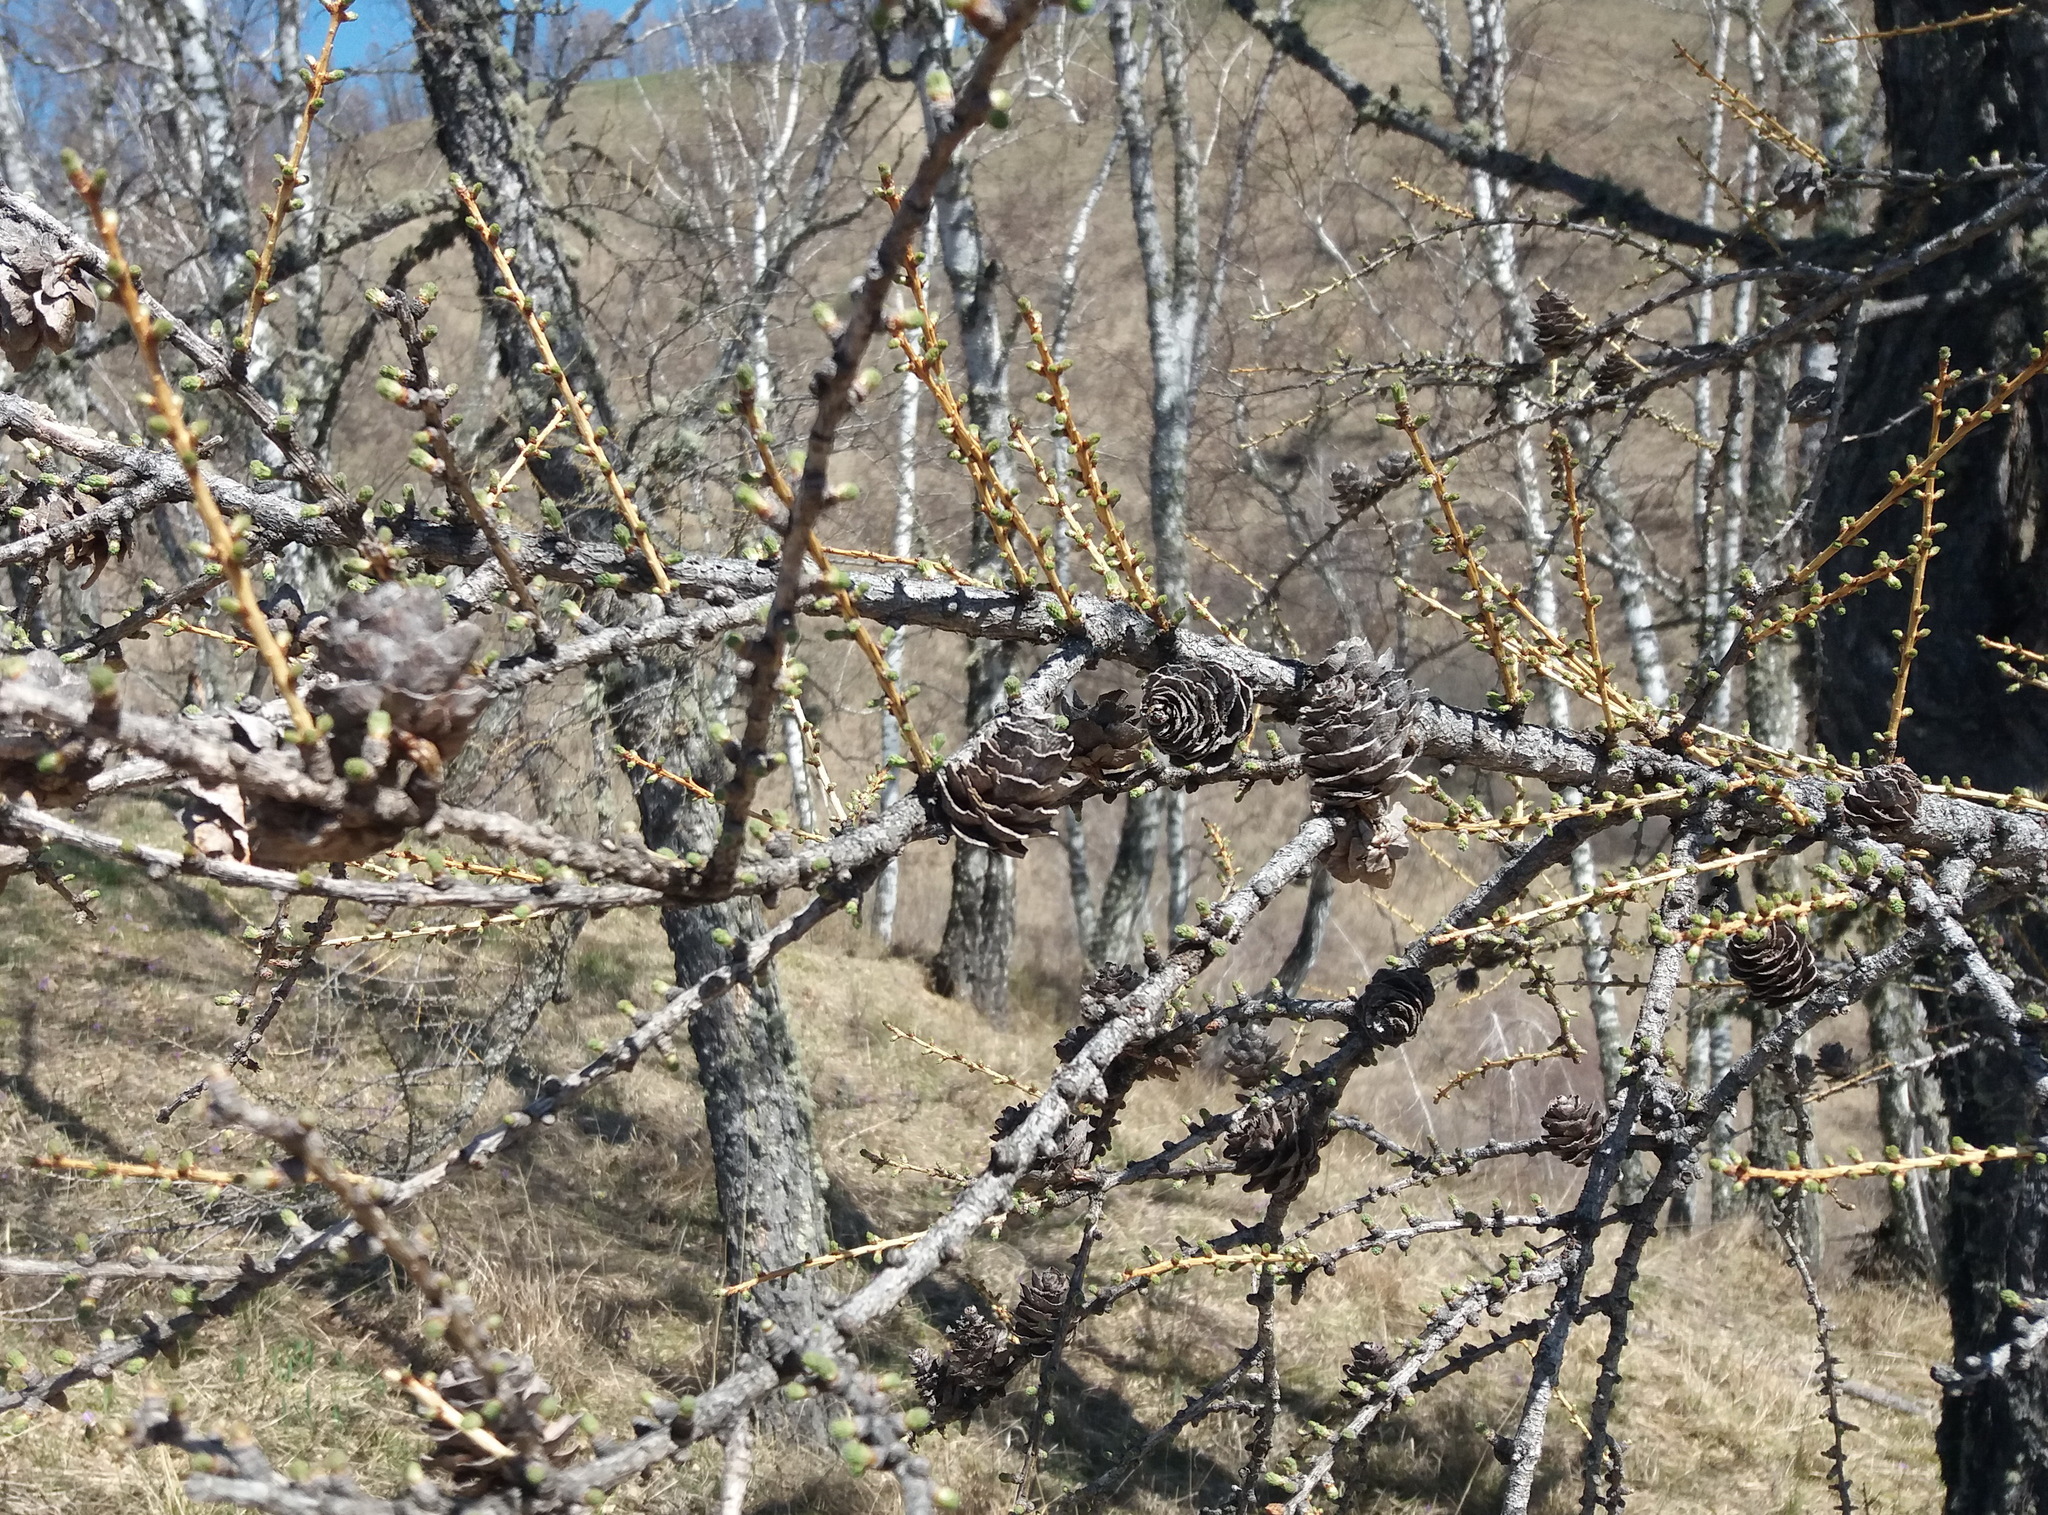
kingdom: Plantae
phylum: Tracheophyta
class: Pinopsida
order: Pinales
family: Pinaceae
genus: Larix
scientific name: Larix sibirica
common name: Siberian larch
